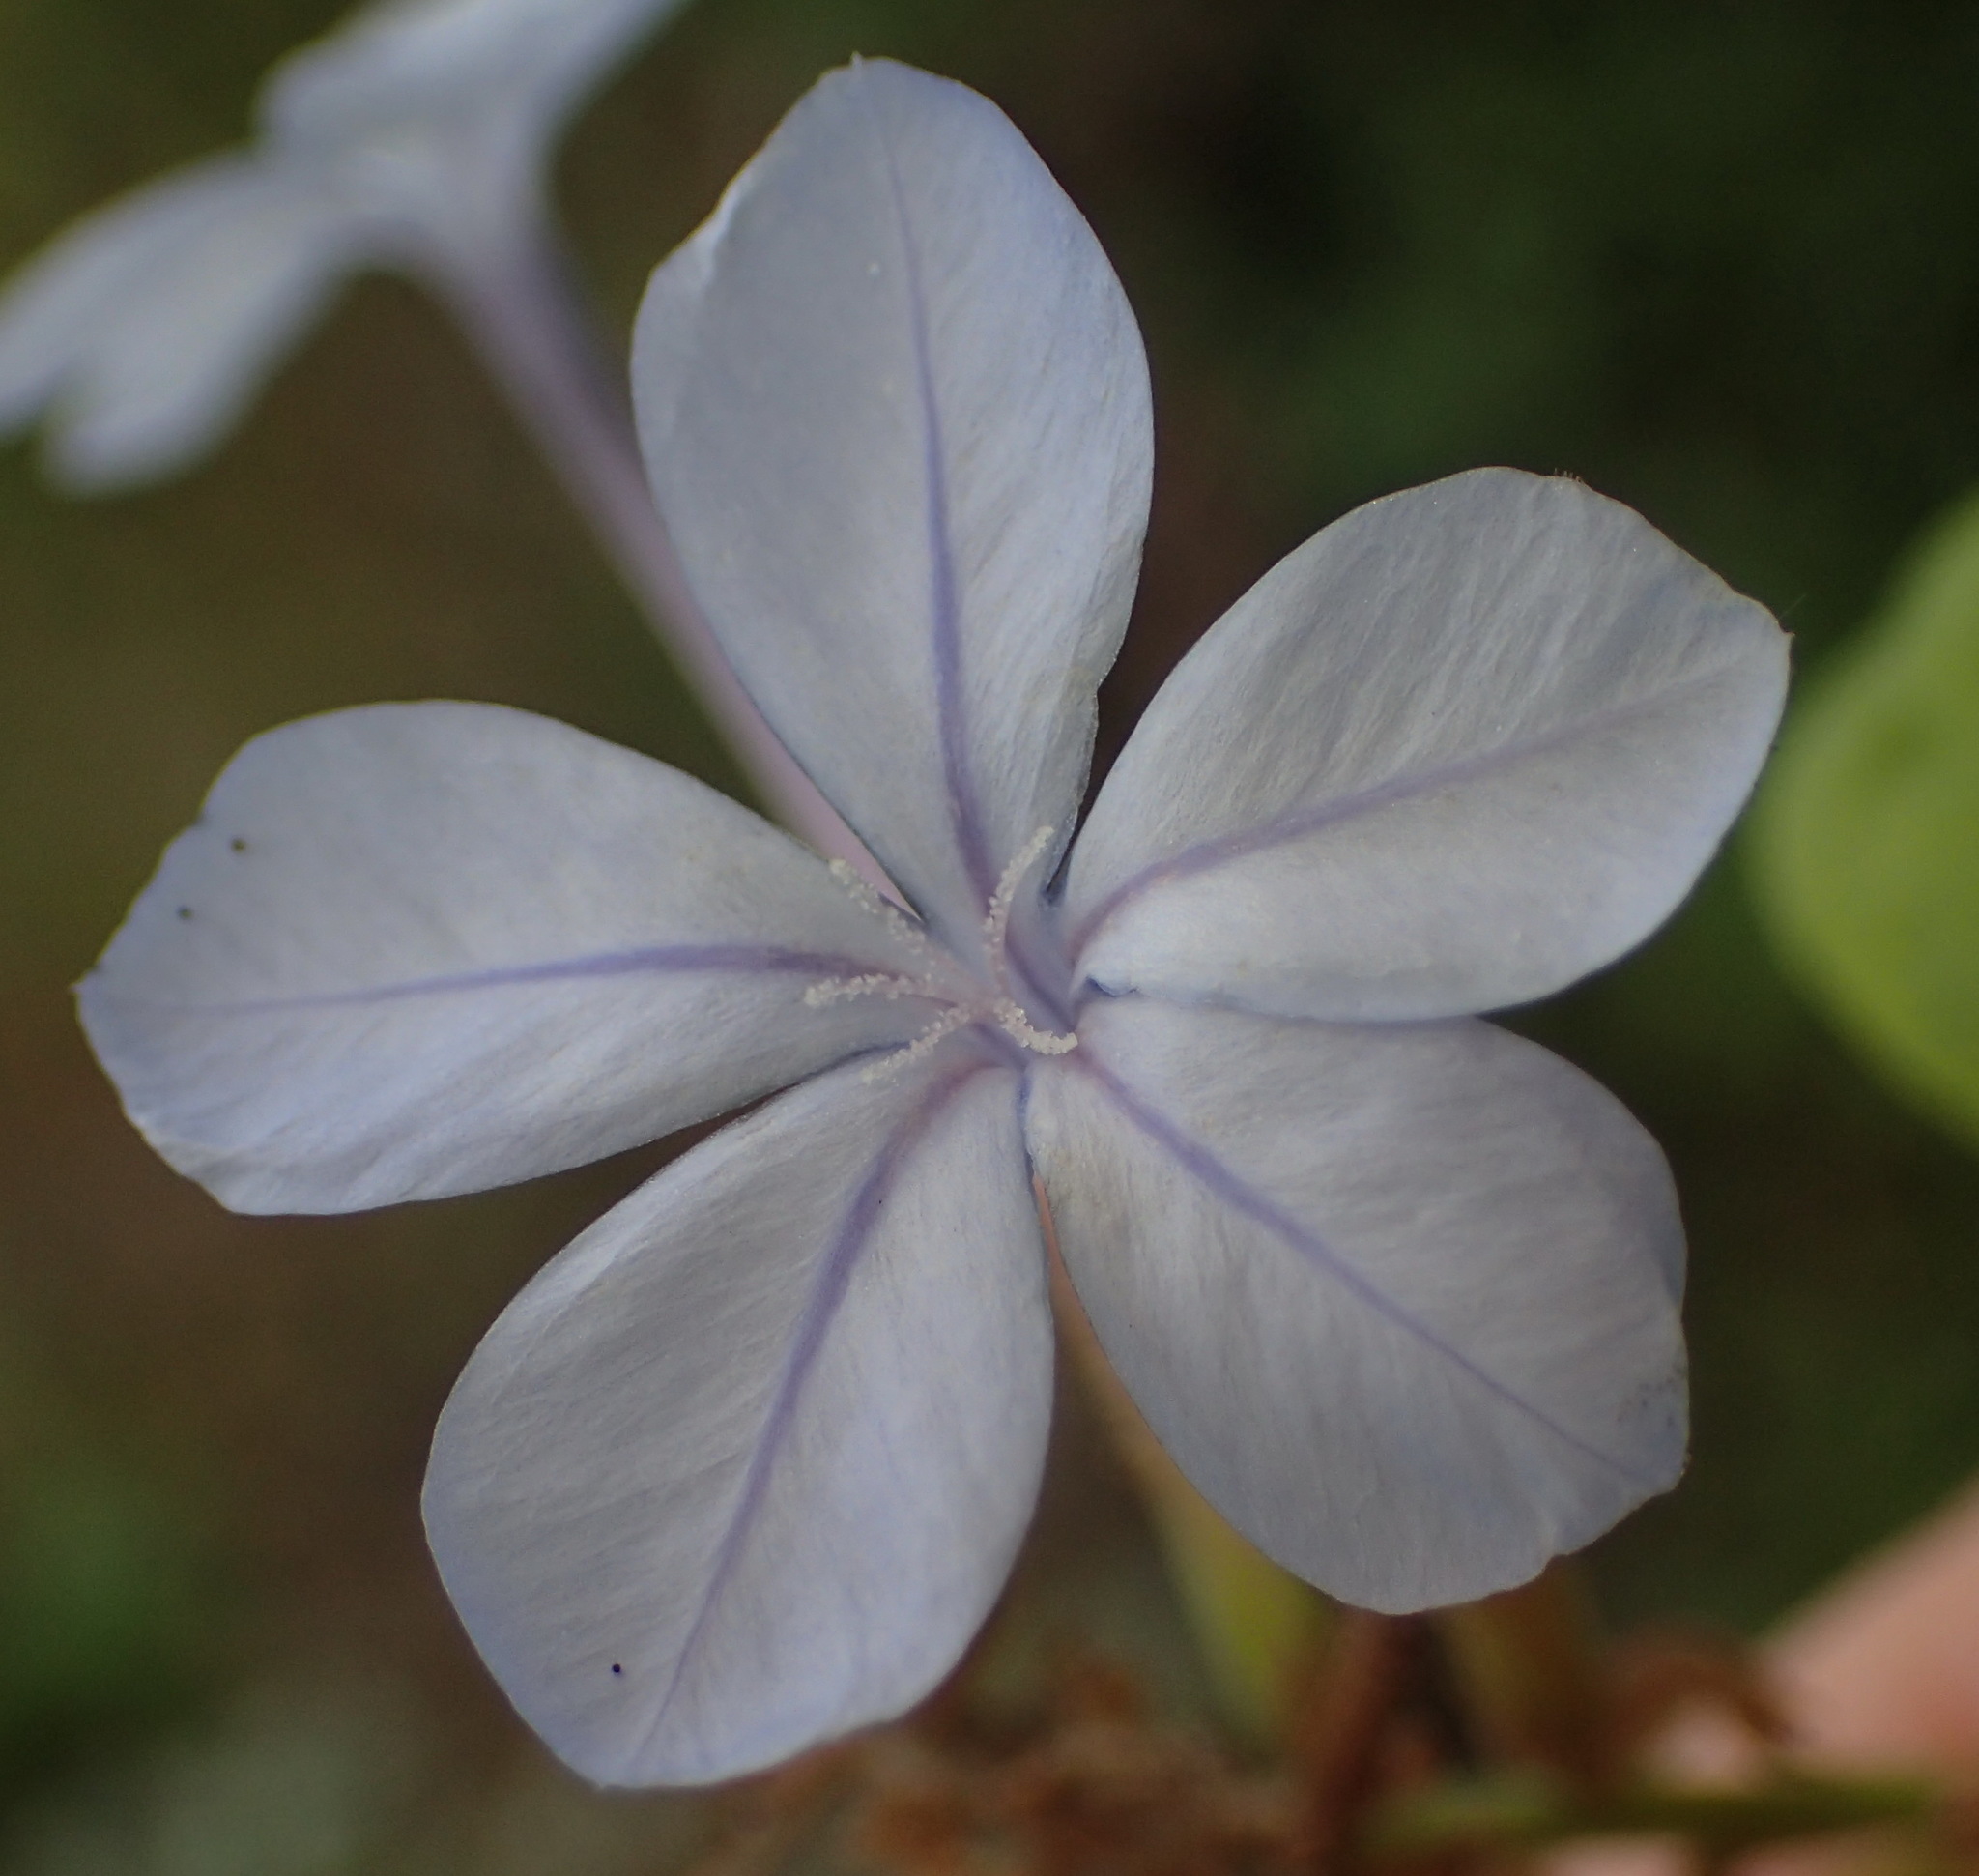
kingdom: Plantae
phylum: Tracheophyta
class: Magnoliopsida
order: Caryophyllales
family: Plumbaginaceae
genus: Plumbago
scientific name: Plumbago auriculata
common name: Cape leadwort
